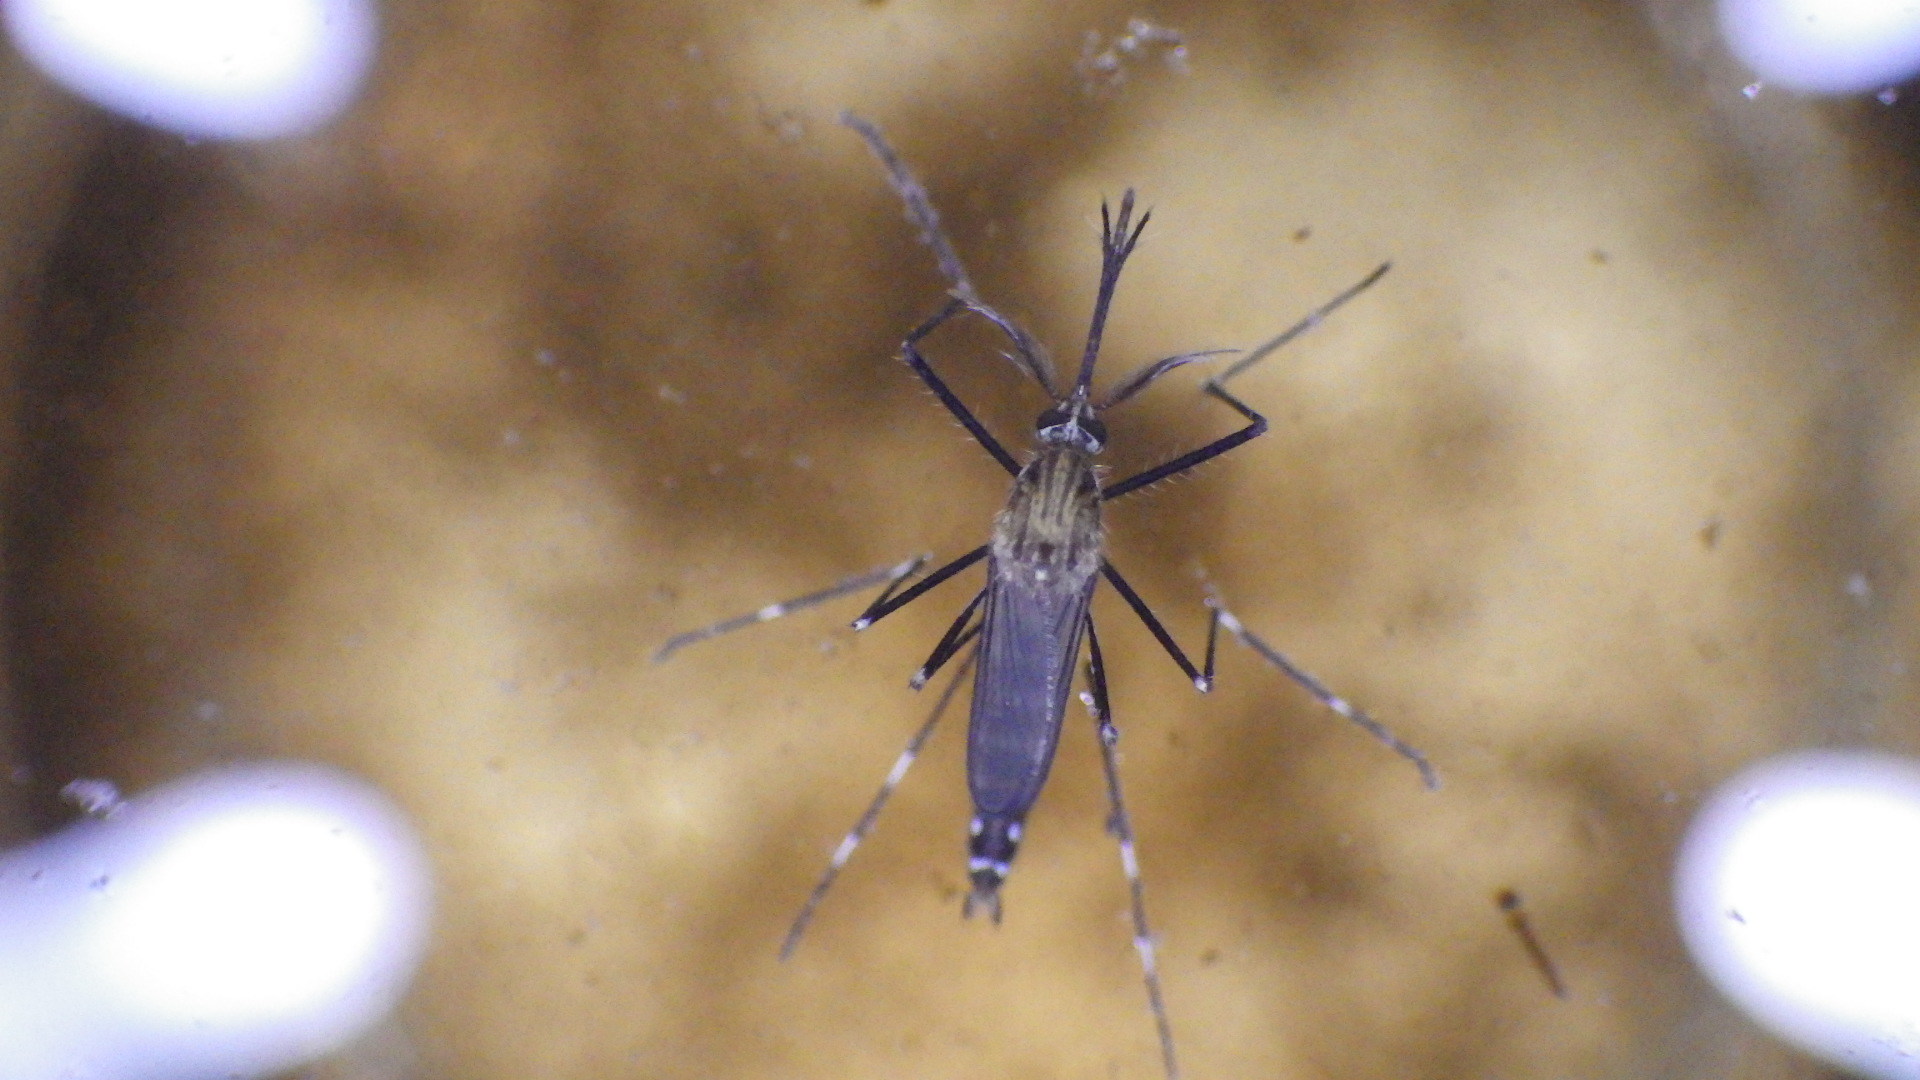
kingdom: Animalia
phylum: Arthropoda
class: Insecta
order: Diptera
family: Culicidae
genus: Aedes
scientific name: Aedes japonicus
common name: Asian bush mosquito
